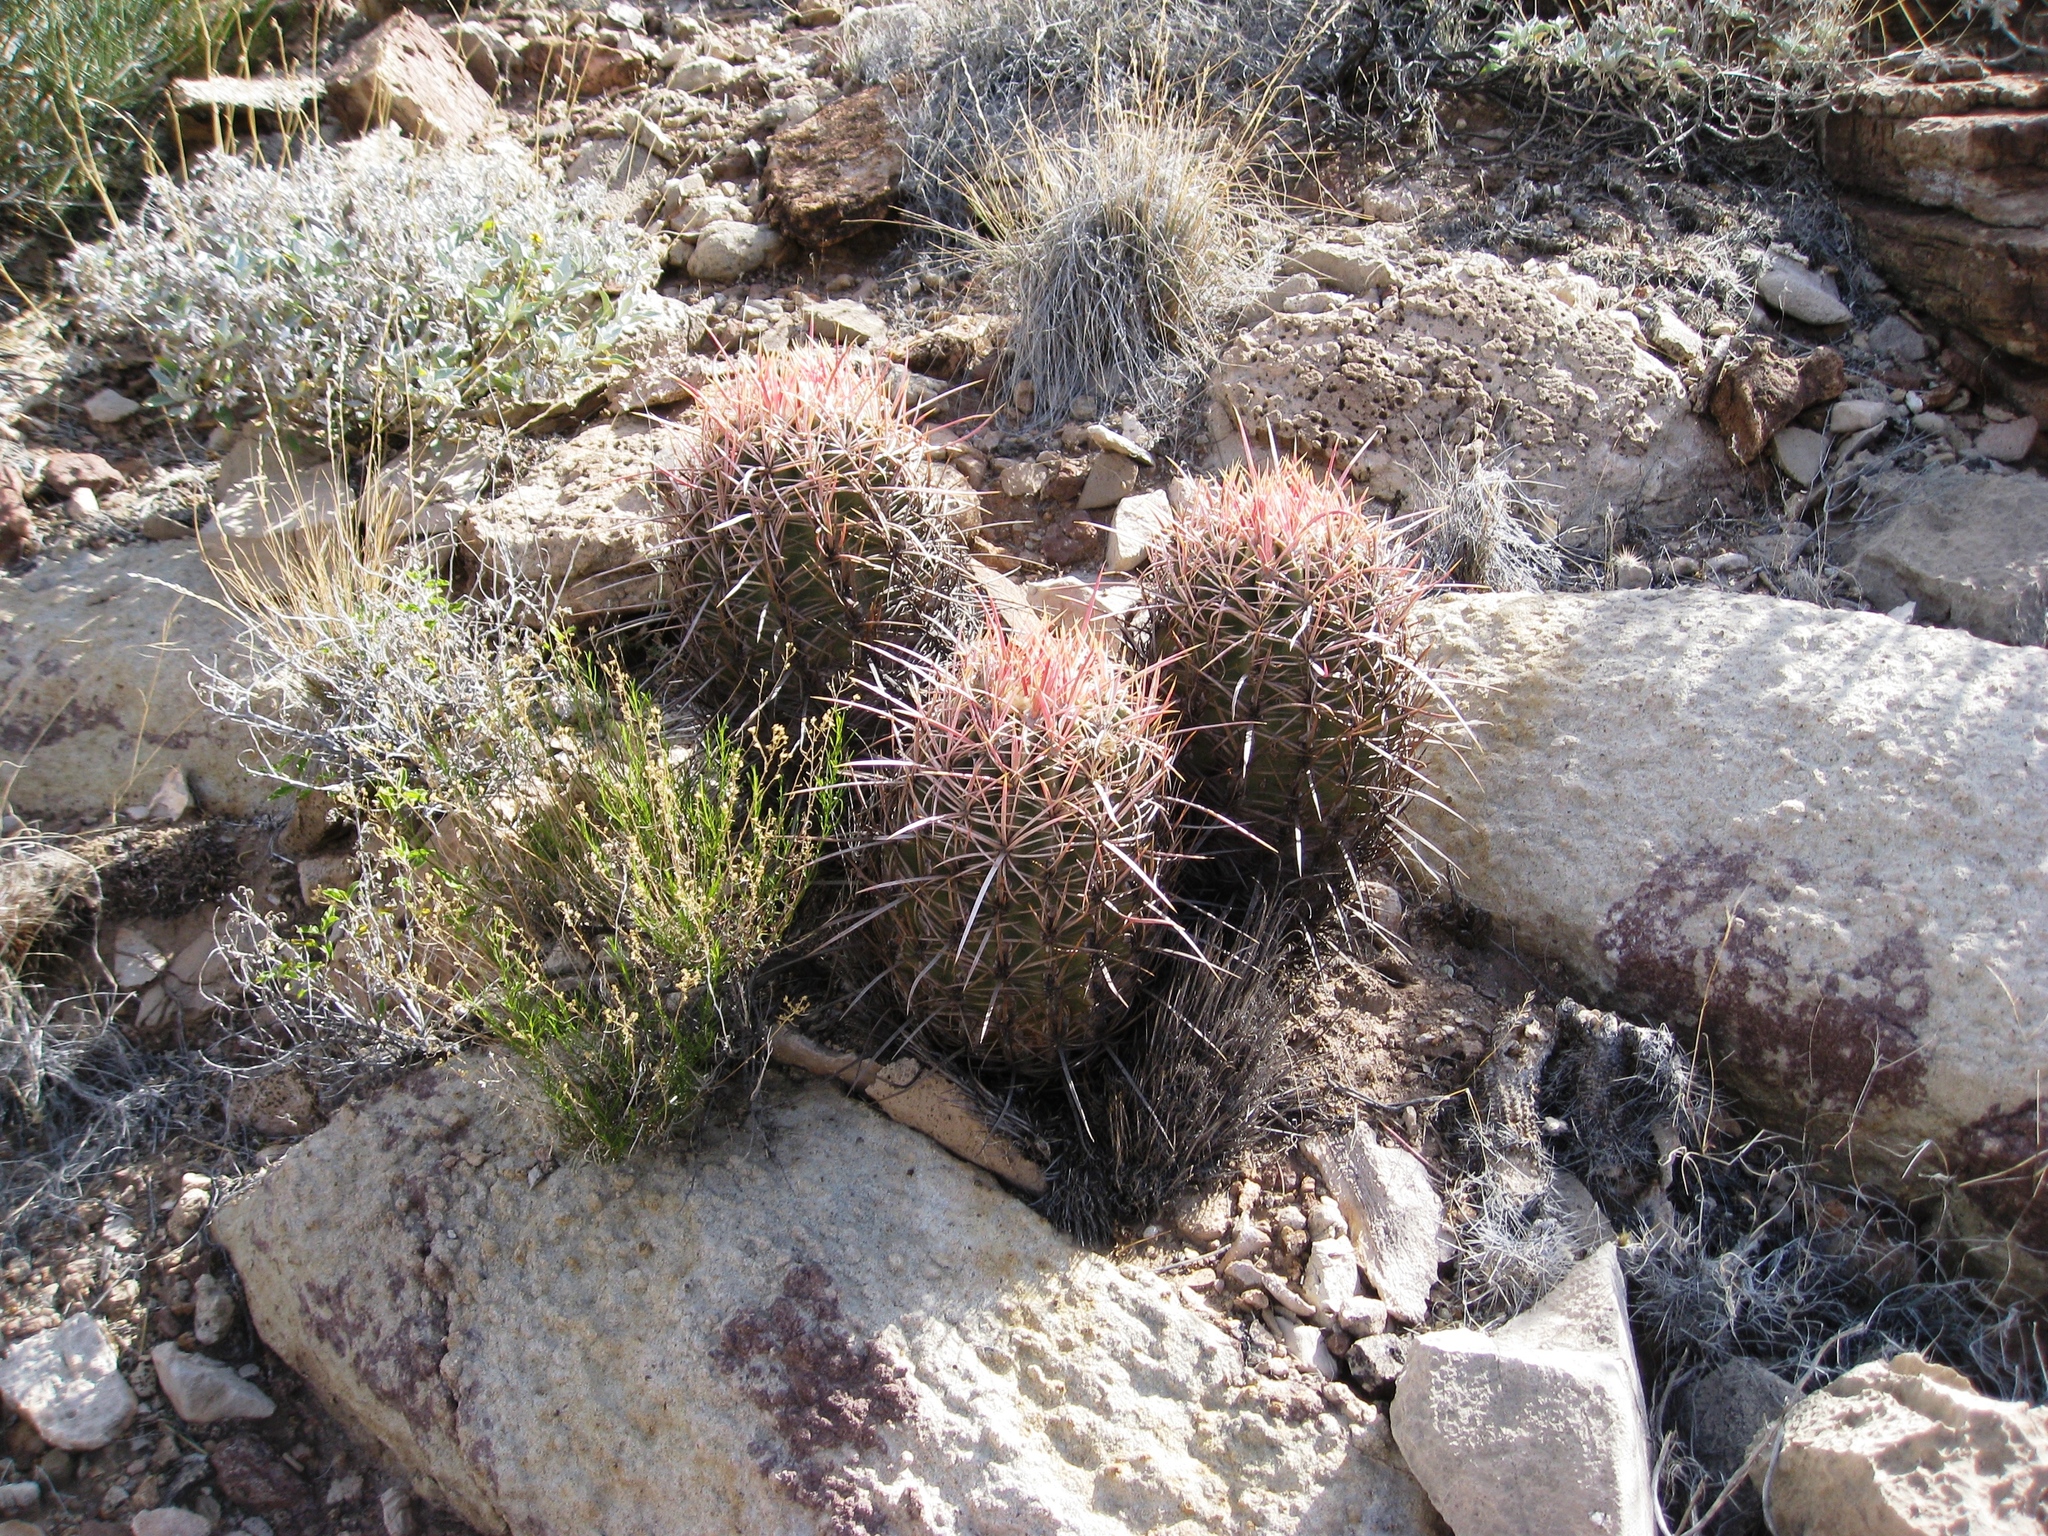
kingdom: Plantae
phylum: Tracheophyta
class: Magnoliopsida
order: Caryophyllales
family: Cactaceae
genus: Echinocactus
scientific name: Echinocactus polycephalus
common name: Cottontop cactus
